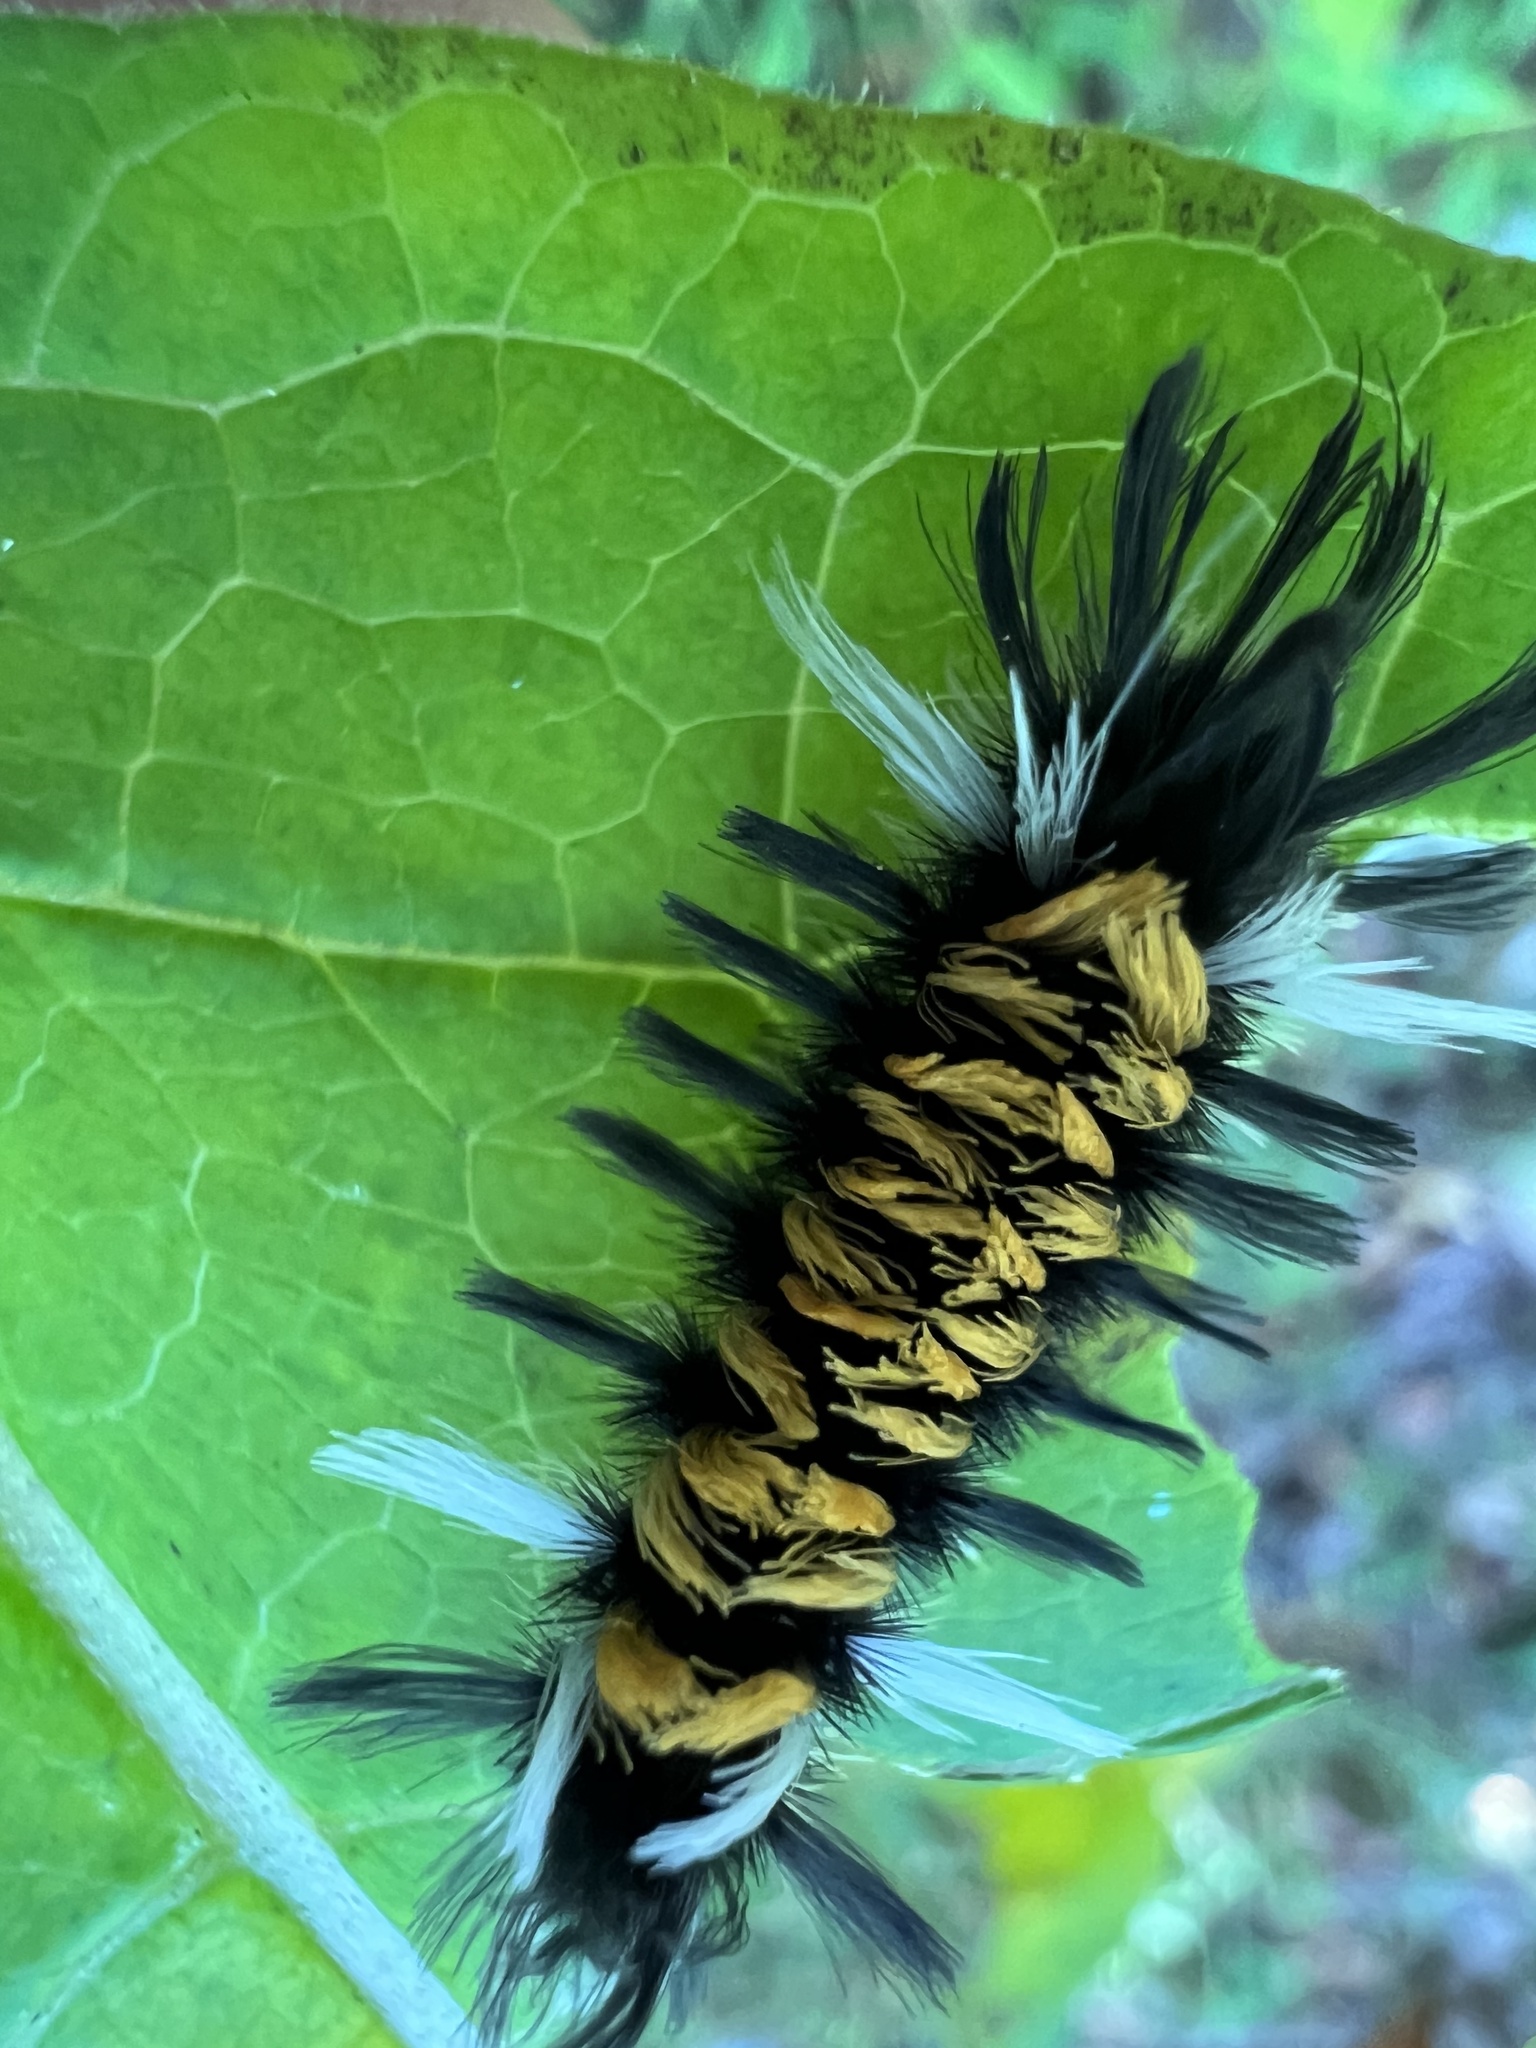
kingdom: Animalia
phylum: Arthropoda
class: Insecta
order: Lepidoptera
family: Erebidae
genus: Euchaetes
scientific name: Euchaetes egle
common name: Milkweed tussock moth
